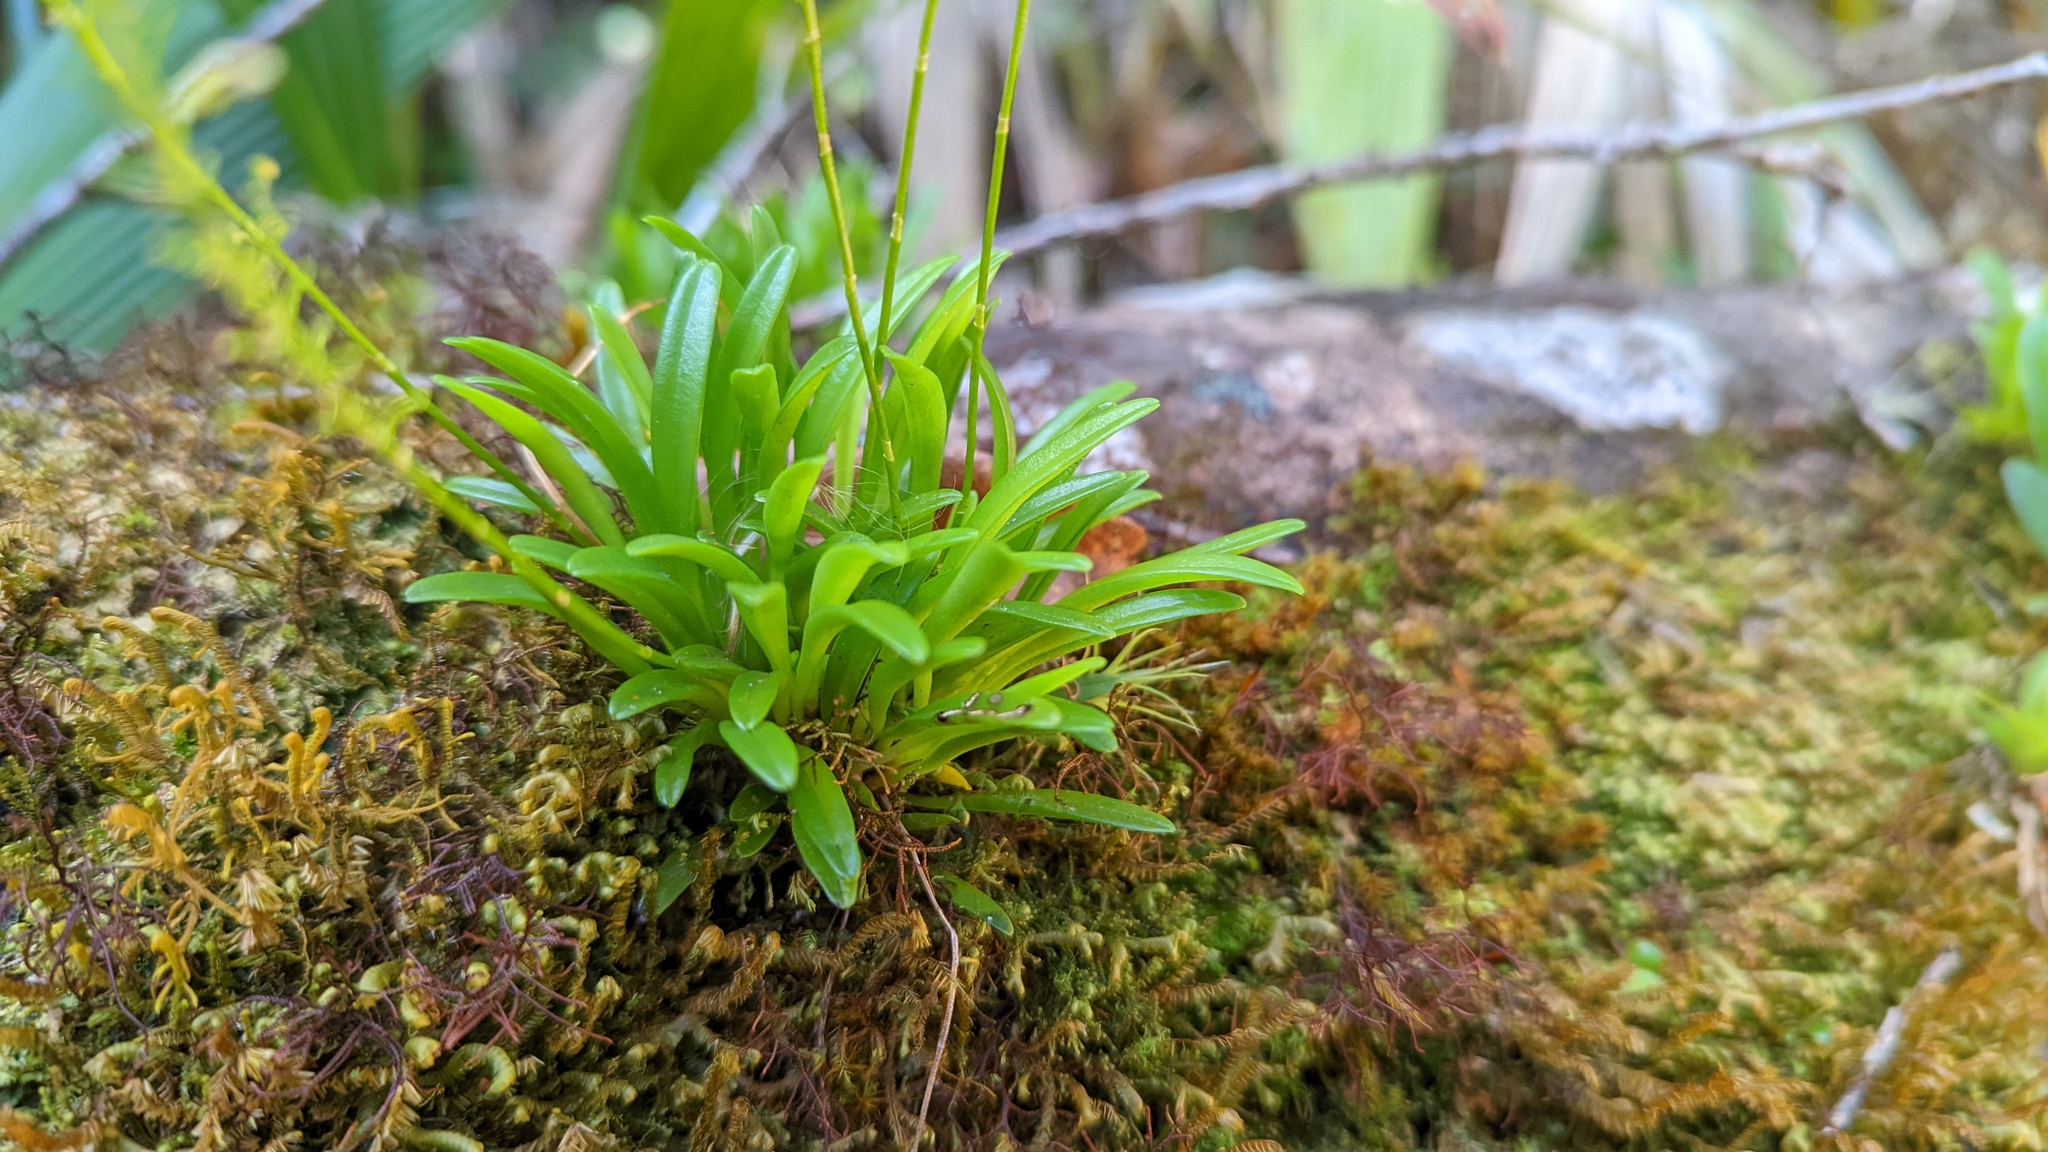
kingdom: Plantae
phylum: Tracheophyta
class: Liliopsida
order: Asparagales
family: Orchidaceae
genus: Platystele
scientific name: Platystele compacta
